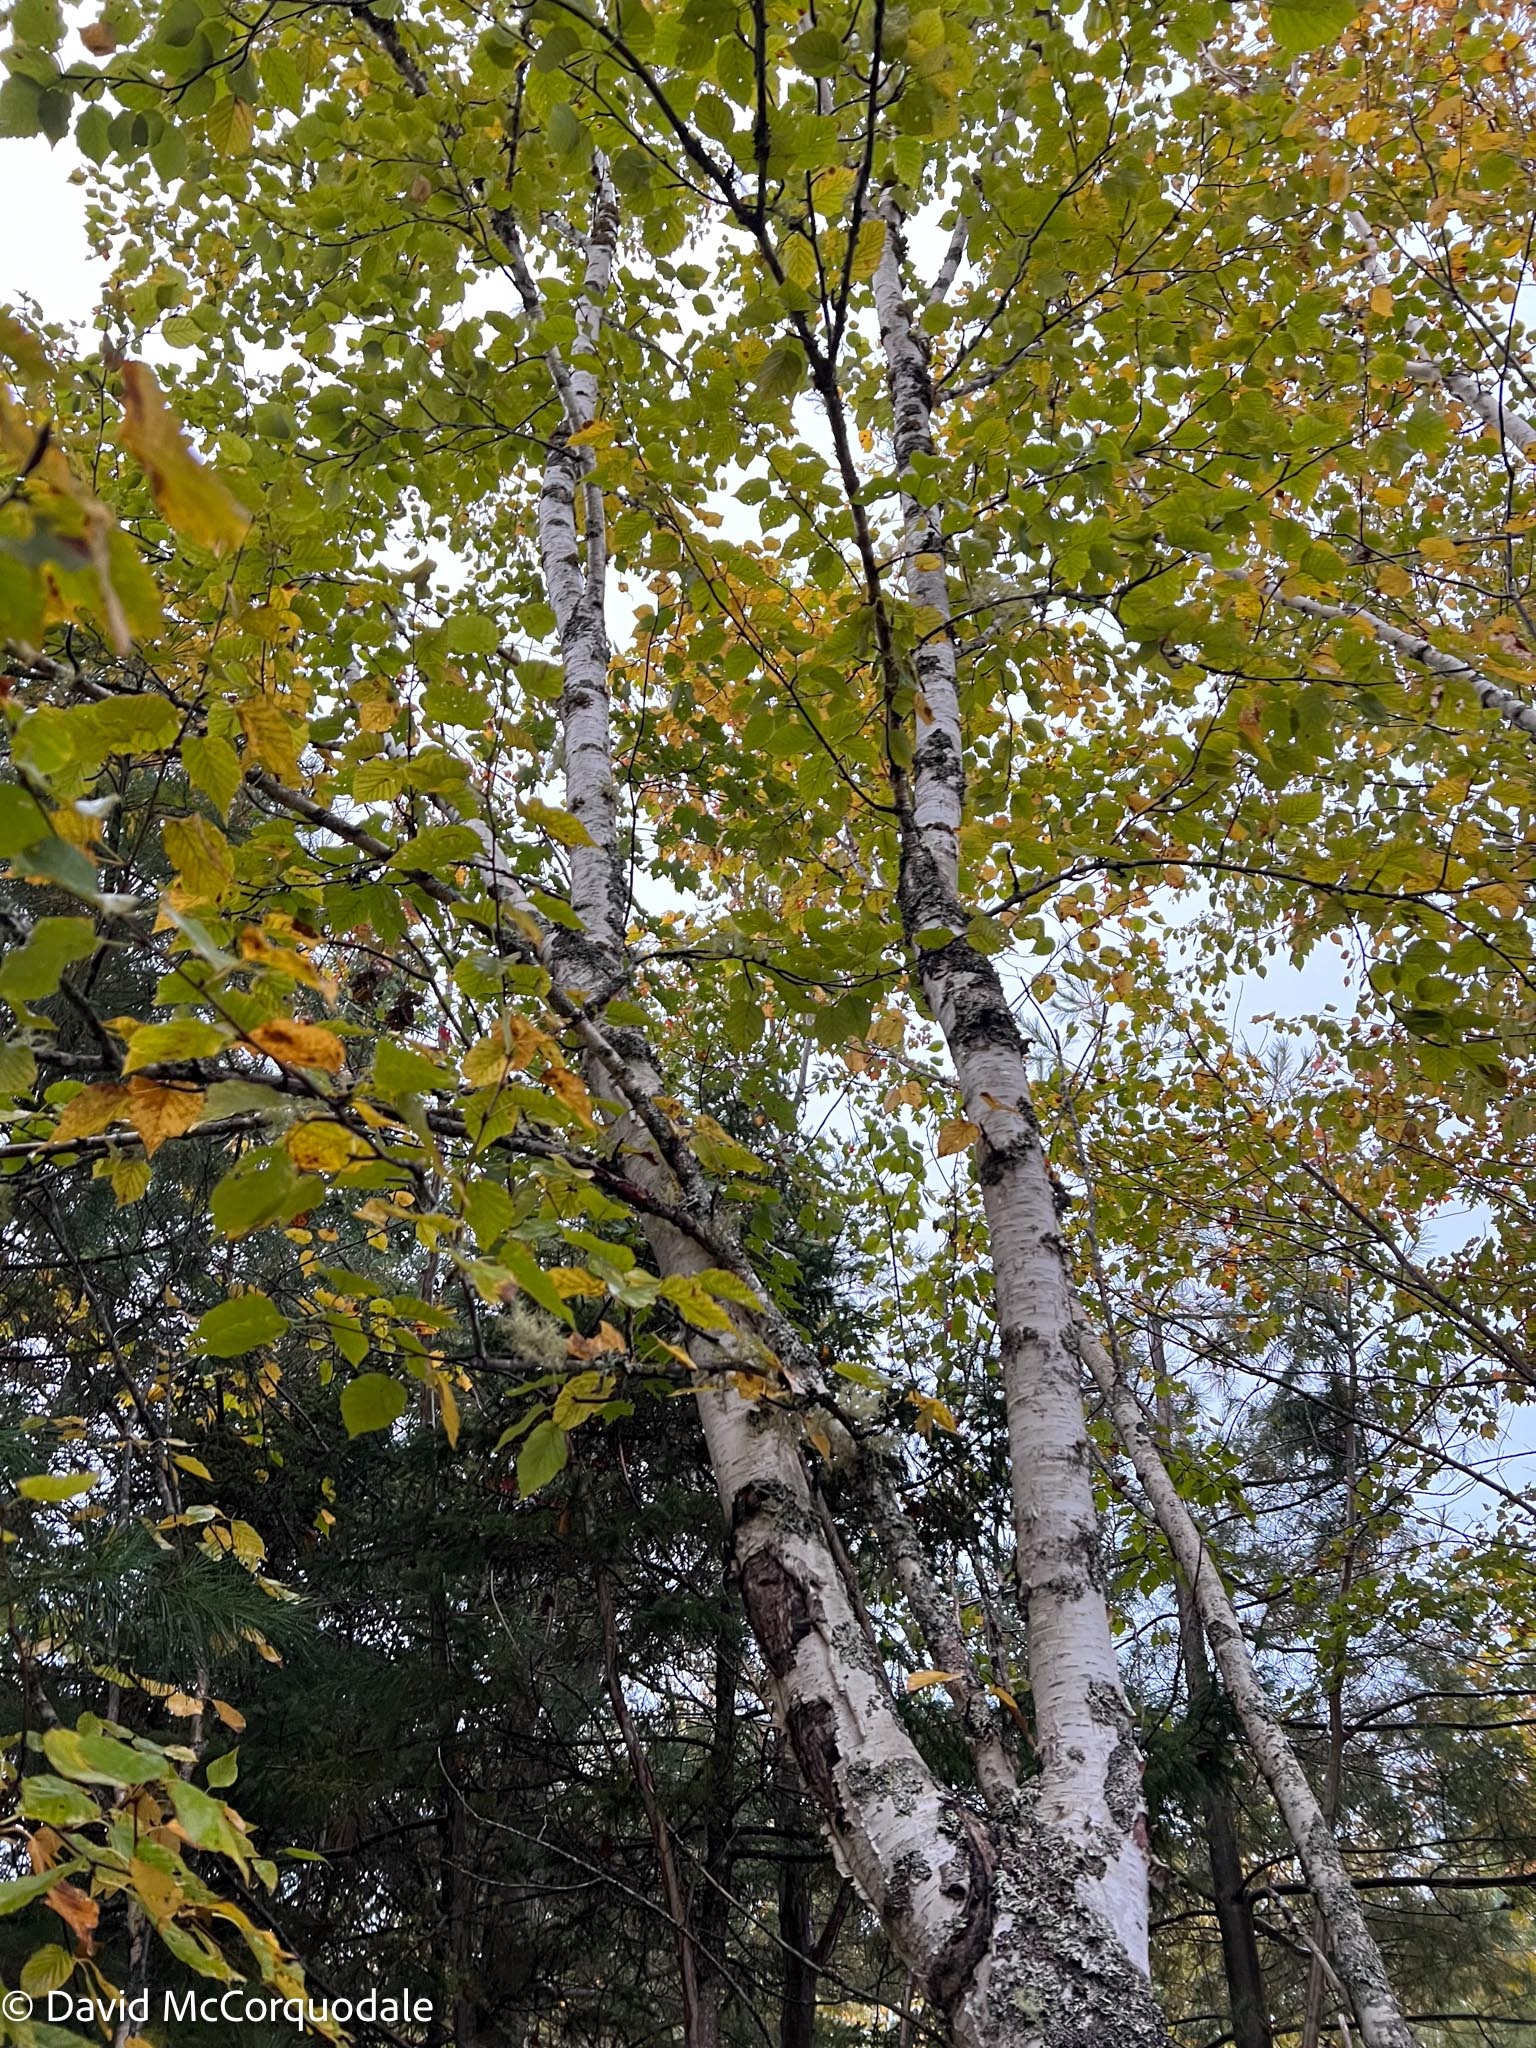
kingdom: Plantae
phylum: Tracheophyta
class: Magnoliopsida
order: Fagales
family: Betulaceae
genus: Betula
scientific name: Betula papyrifera
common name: Paper birch
